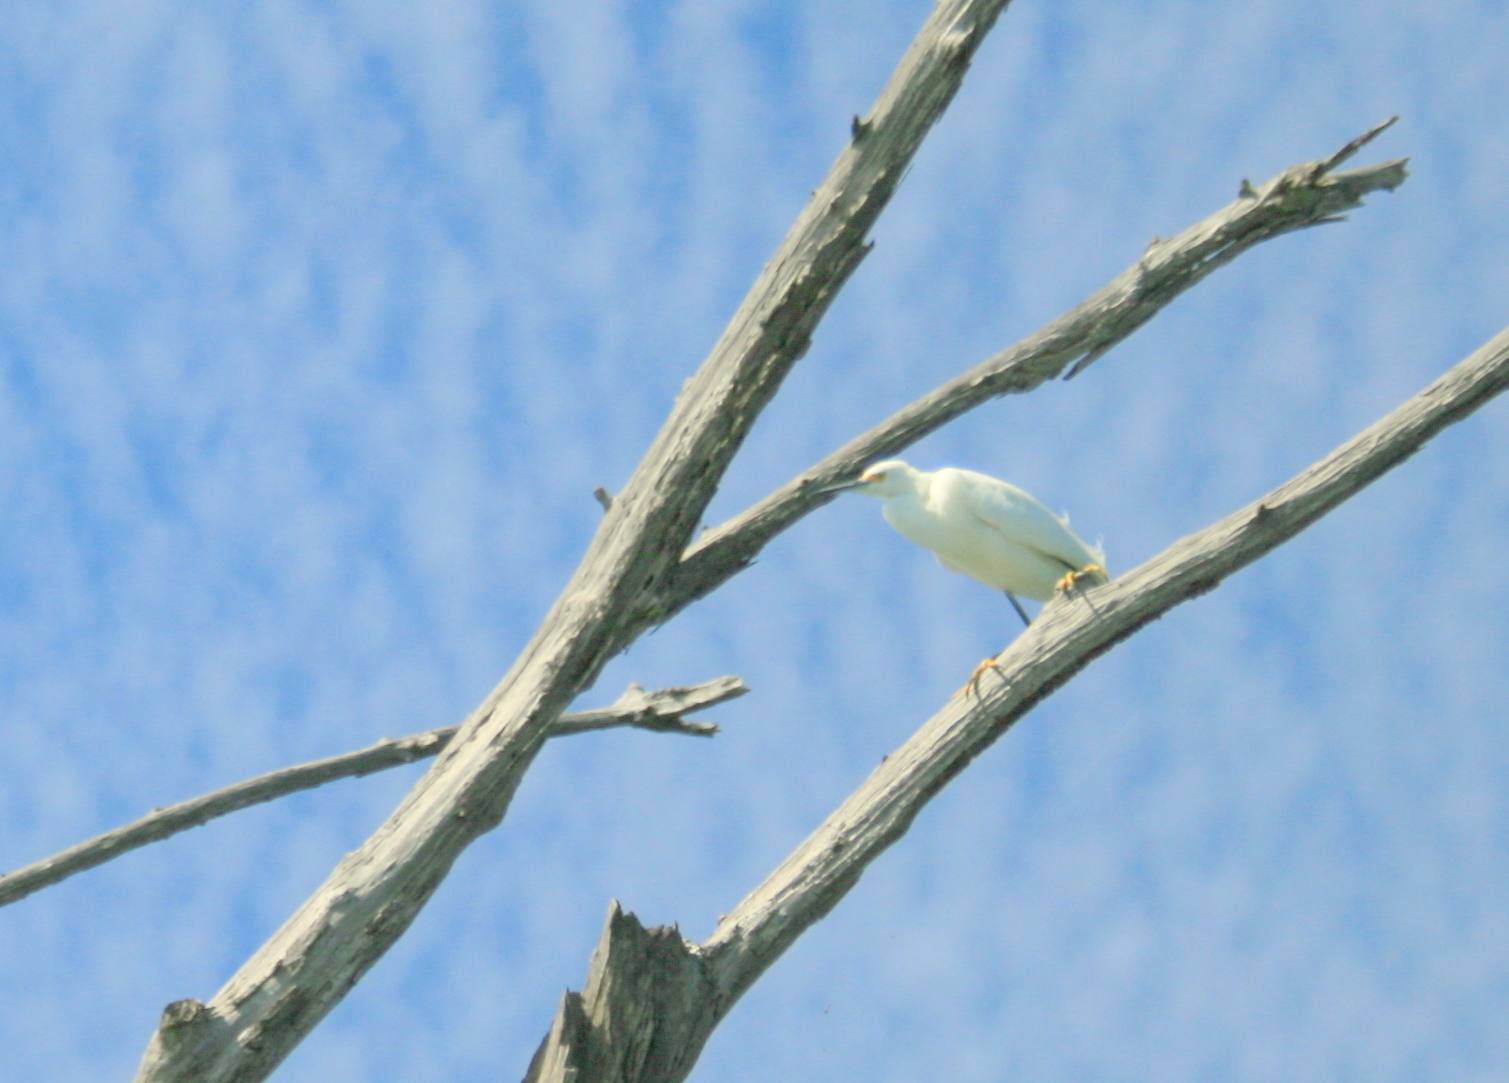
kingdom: Animalia
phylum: Chordata
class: Aves
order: Pelecaniformes
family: Ardeidae
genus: Egretta
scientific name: Egretta thula
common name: Snowy egret
